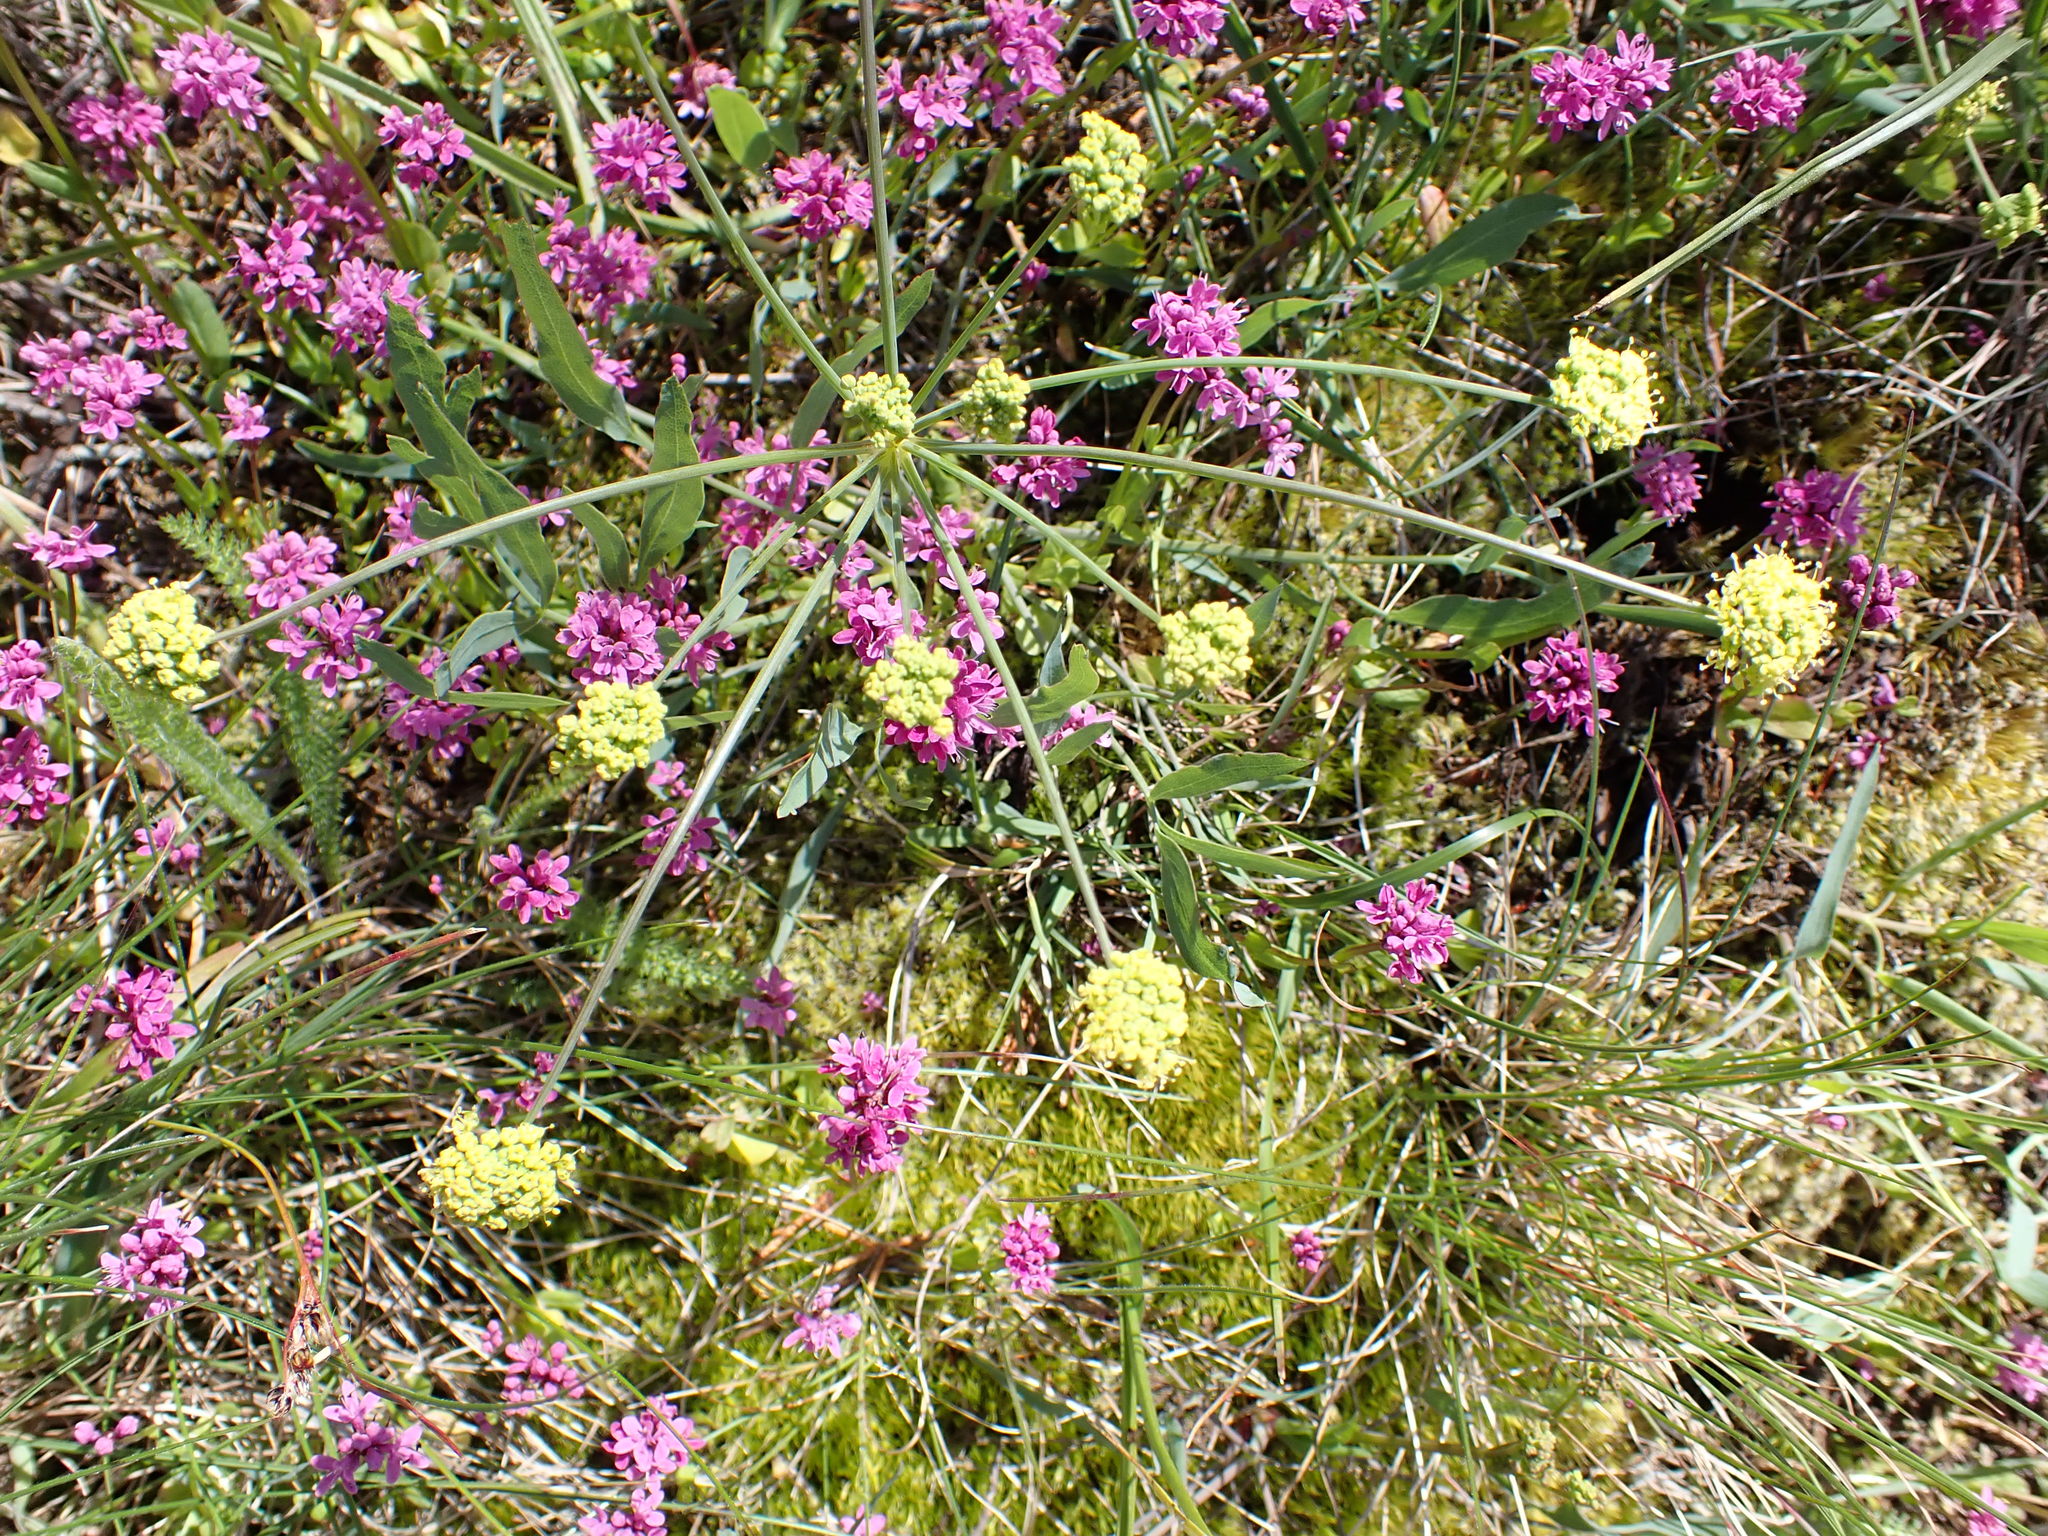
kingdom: Plantae
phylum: Tracheophyta
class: Magnoliopsida
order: Apiales
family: Apiaceae
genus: Lomatium
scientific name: Lomatium nudicaule
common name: Pestle lomatium
